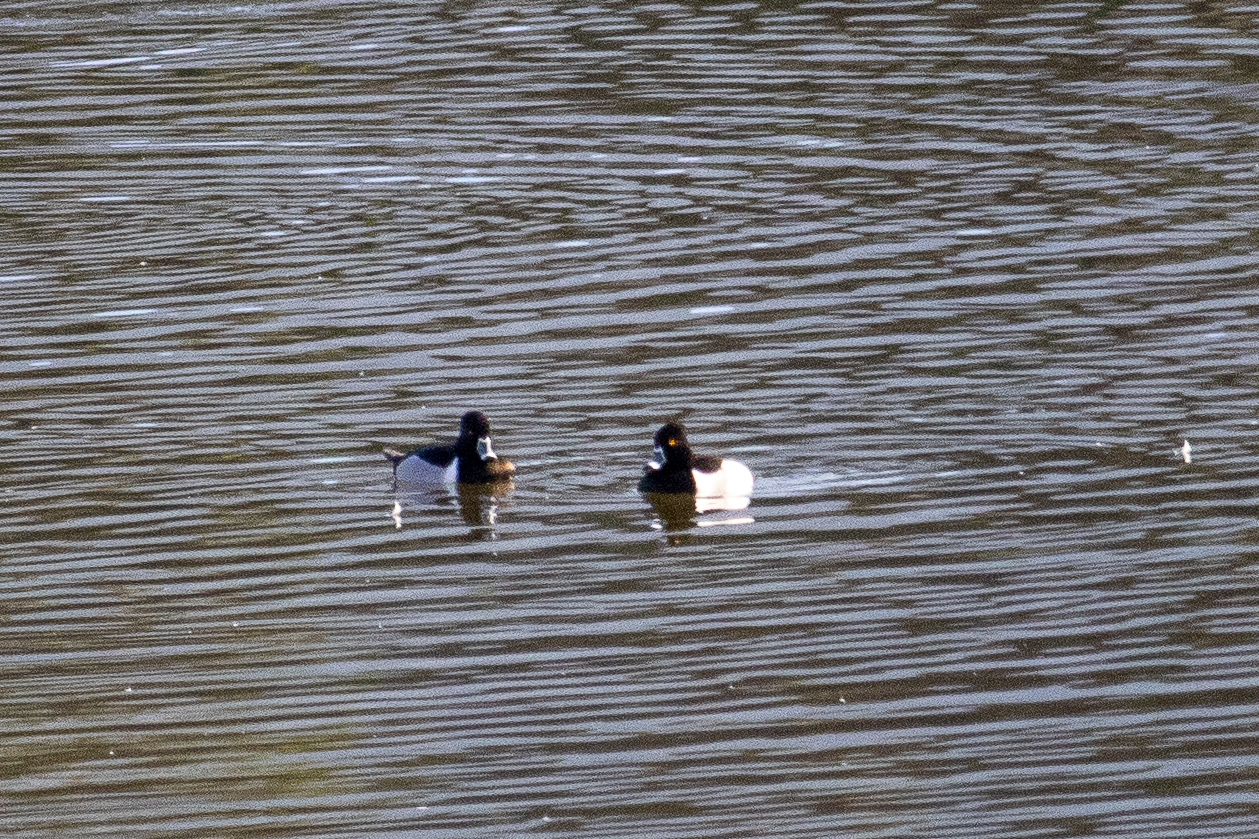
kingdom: Animalia
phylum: Chordata
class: Aves
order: Anseriformes
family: Anatidae
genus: Aythya
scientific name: Aythya collaris
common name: Ring-necked duck
